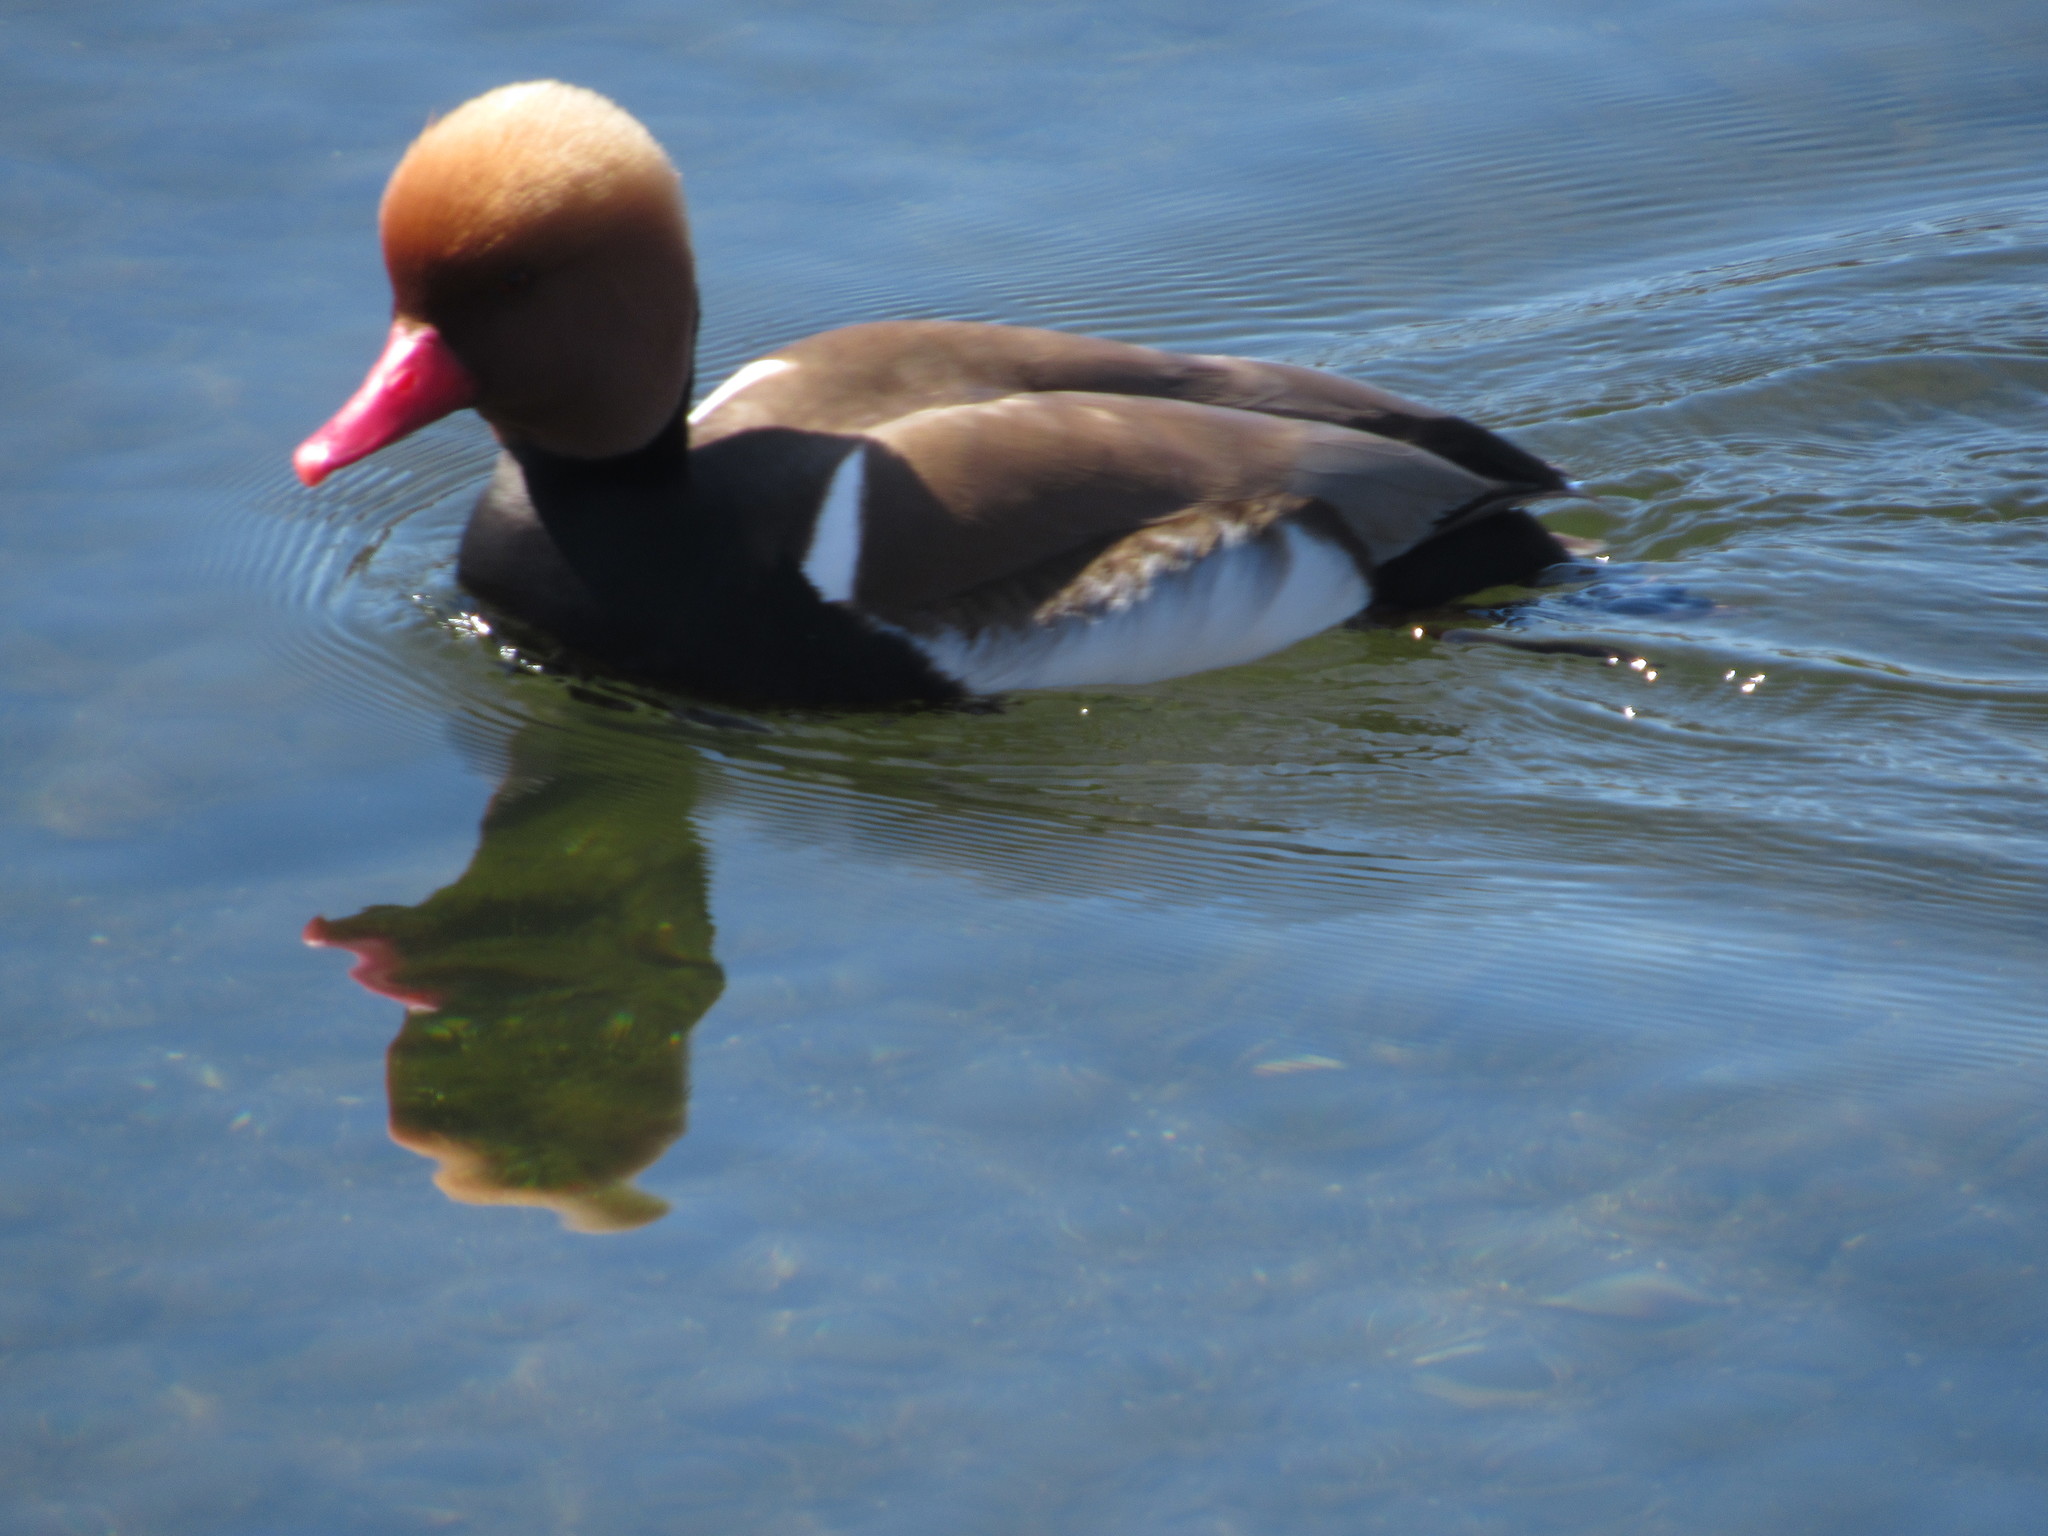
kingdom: Animalia
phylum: Chordata
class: Aves
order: Anseriformes
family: Anatidae
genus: Netta
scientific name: Netta rufina
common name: Red-crested pochard
